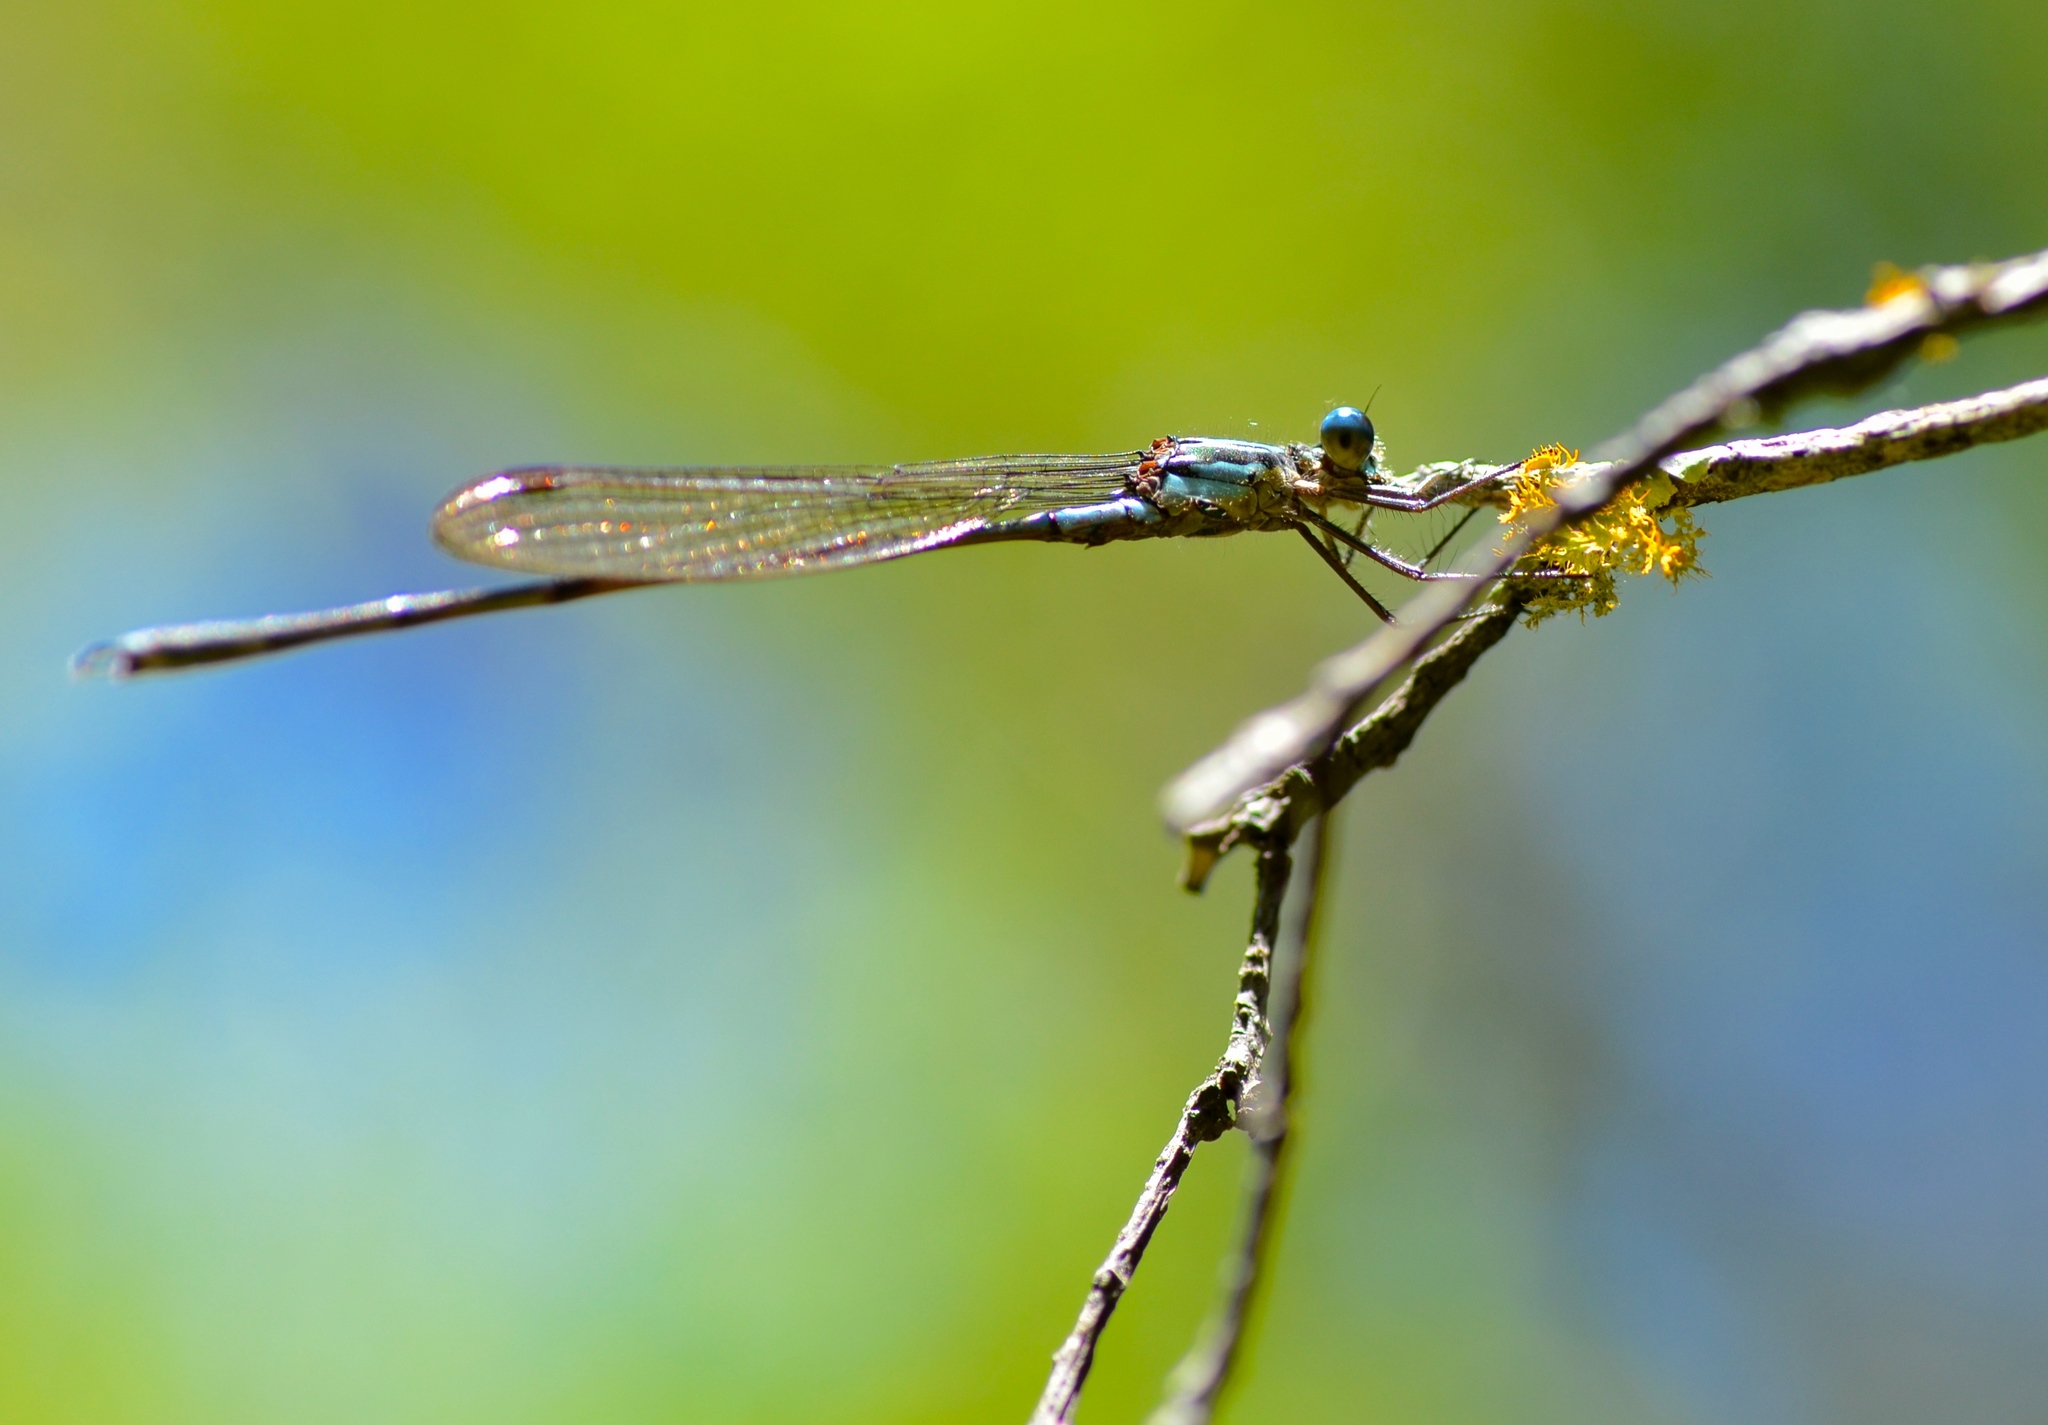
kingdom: Animalia
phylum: Arthropoda
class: Insecta
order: Odonata
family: Lestidae
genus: Austrolestes
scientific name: Austrolestes colensonis
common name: Blue damselfly
